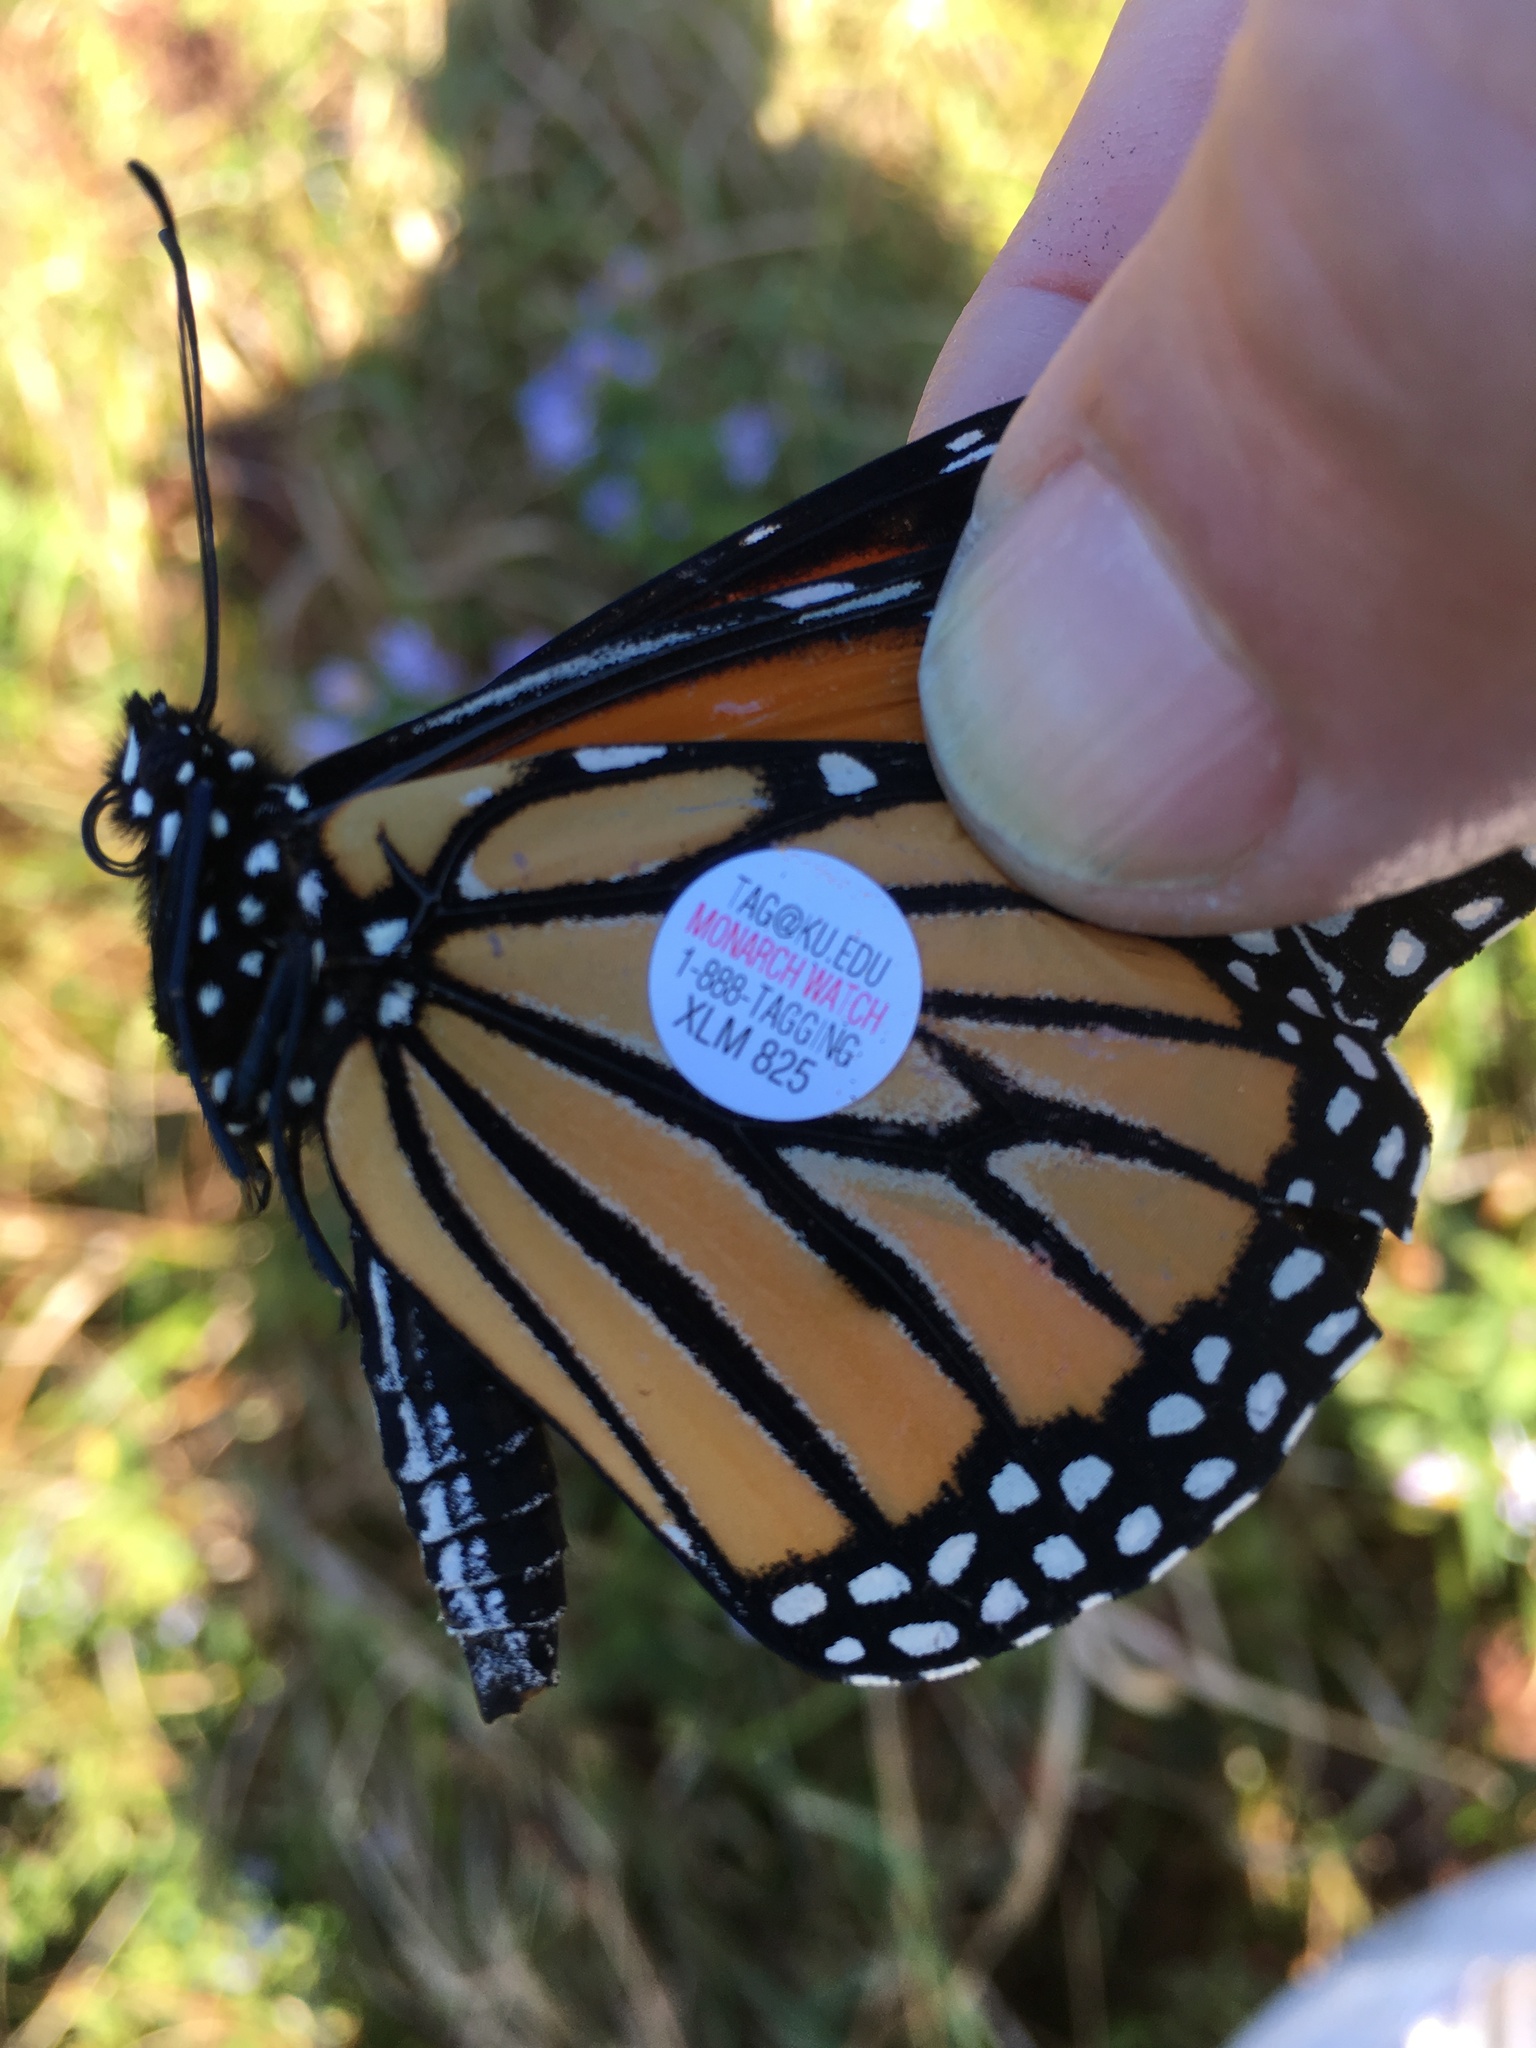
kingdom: Animalia
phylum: Arthropoda
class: Insecta
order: Lepidoptera
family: Nymphalidae
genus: Danaus
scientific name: Danaus plexippus
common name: Monarch
